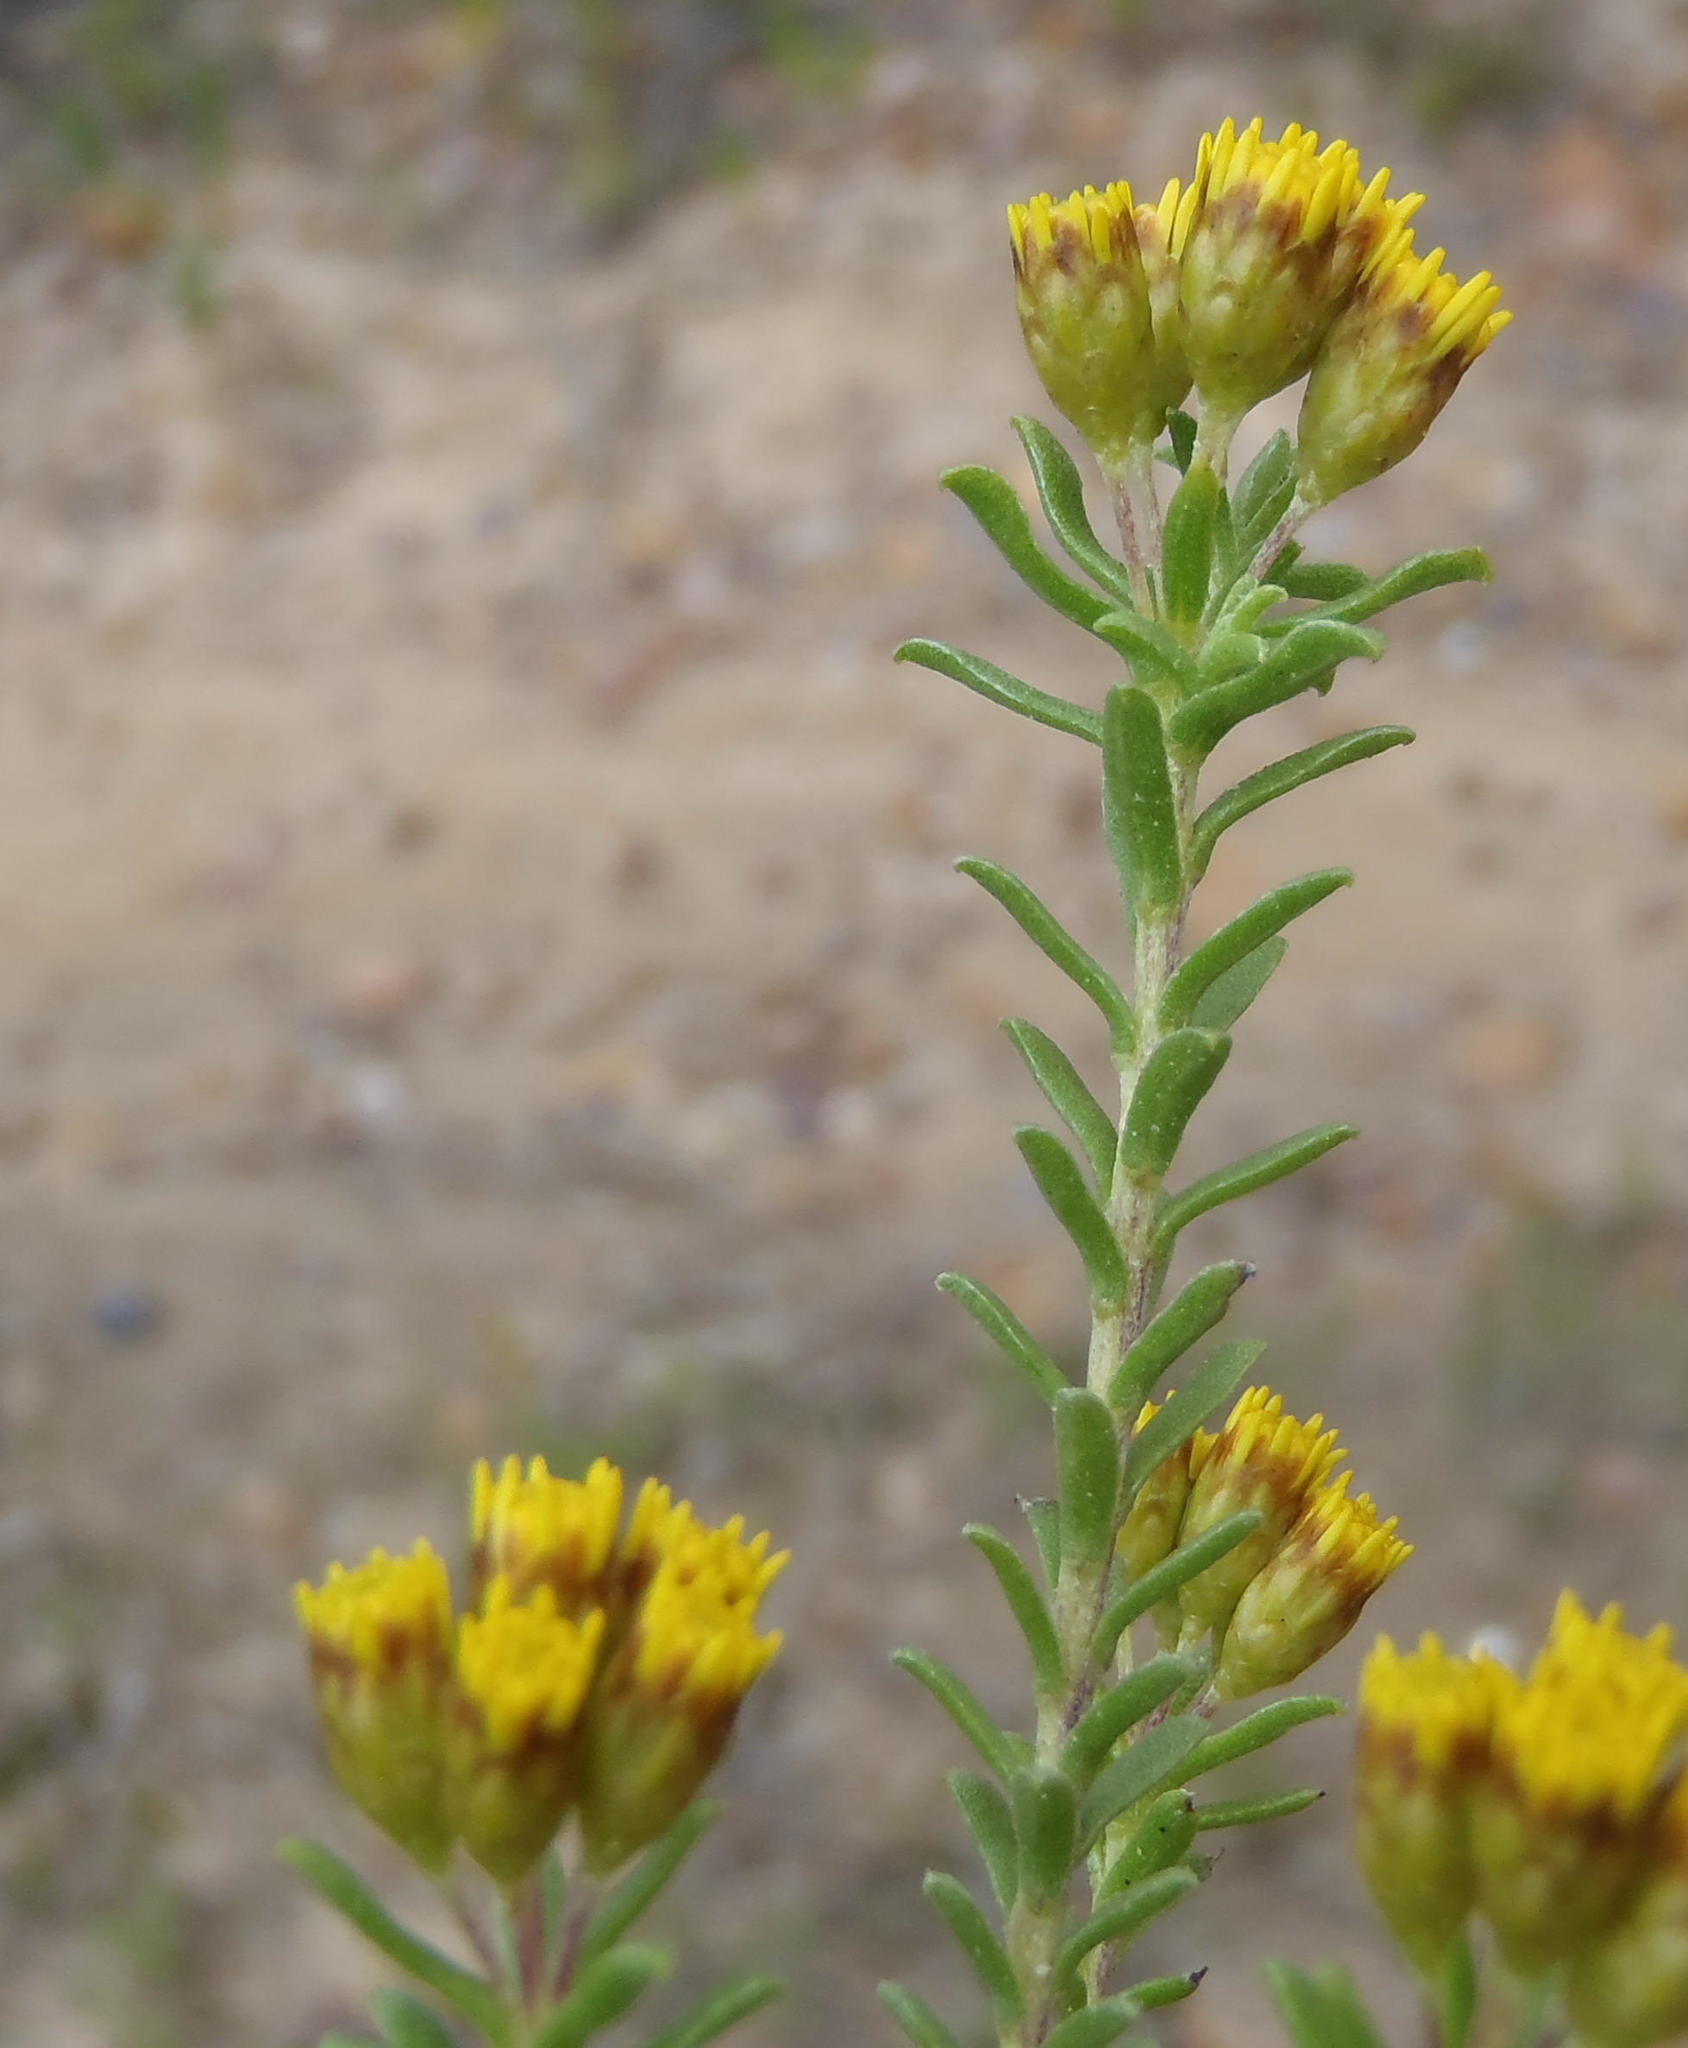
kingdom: Plantae
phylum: Tracheophyta
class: Magnoliopsida
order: Asterales
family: Asteraceae
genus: Oedera
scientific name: Oedera genistifolia
